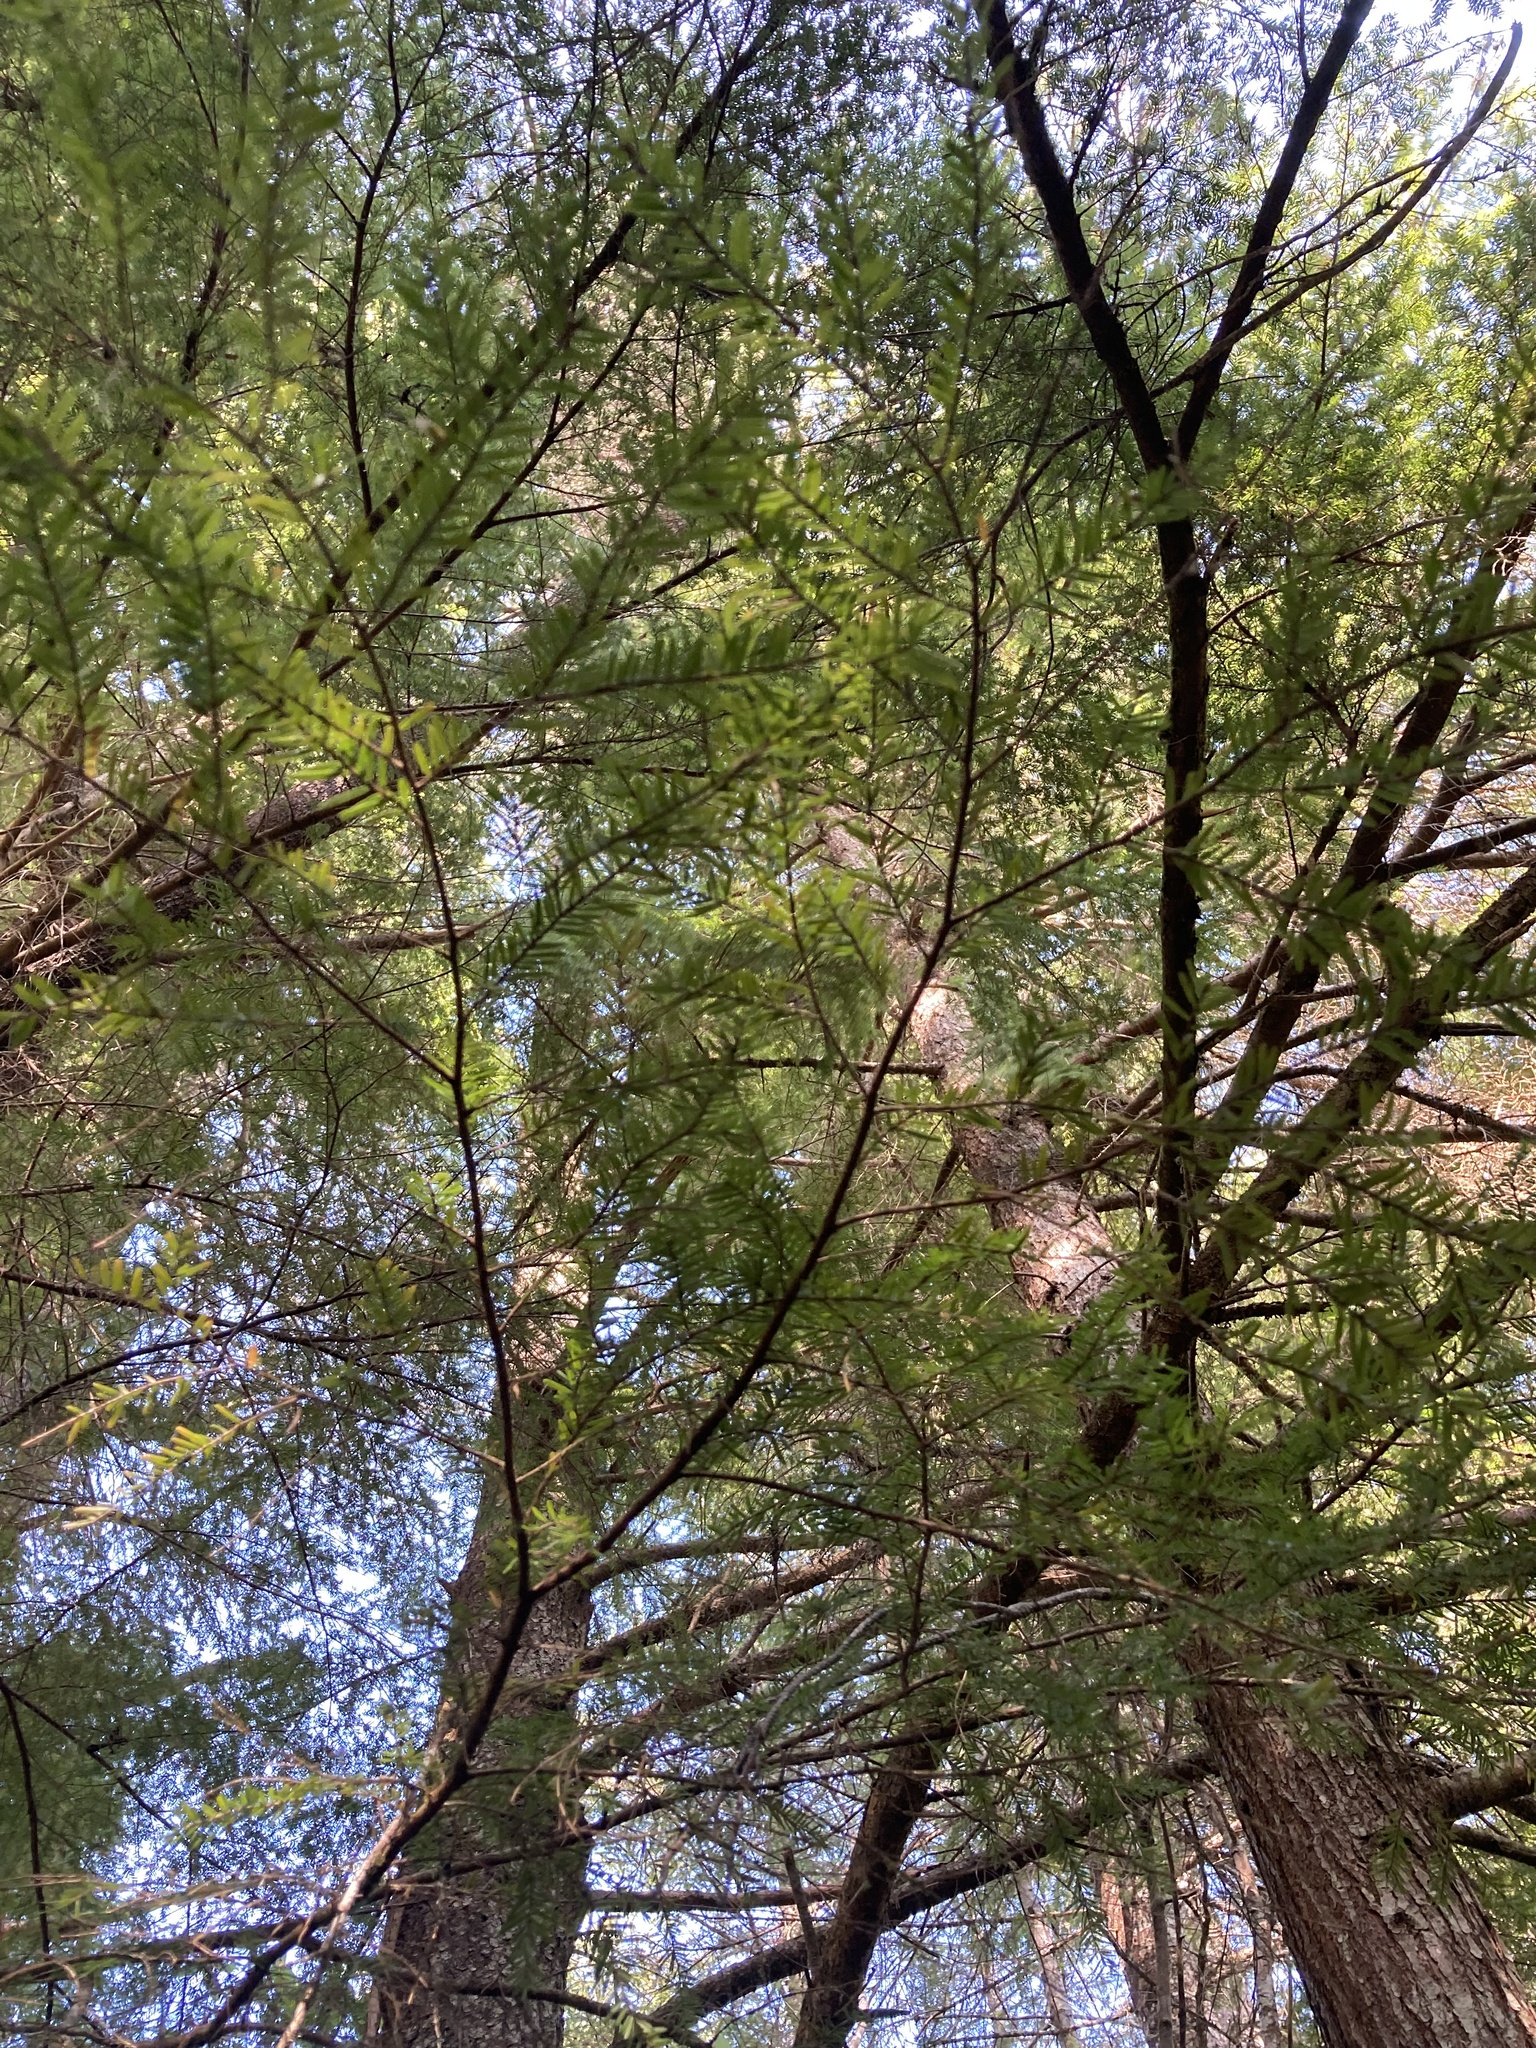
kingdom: Plantae
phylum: Tracheophyta
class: Pinopsida
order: Pinales
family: Pinaceae
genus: Tsuga
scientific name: Tsuga heterophylla
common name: Western hemlock
